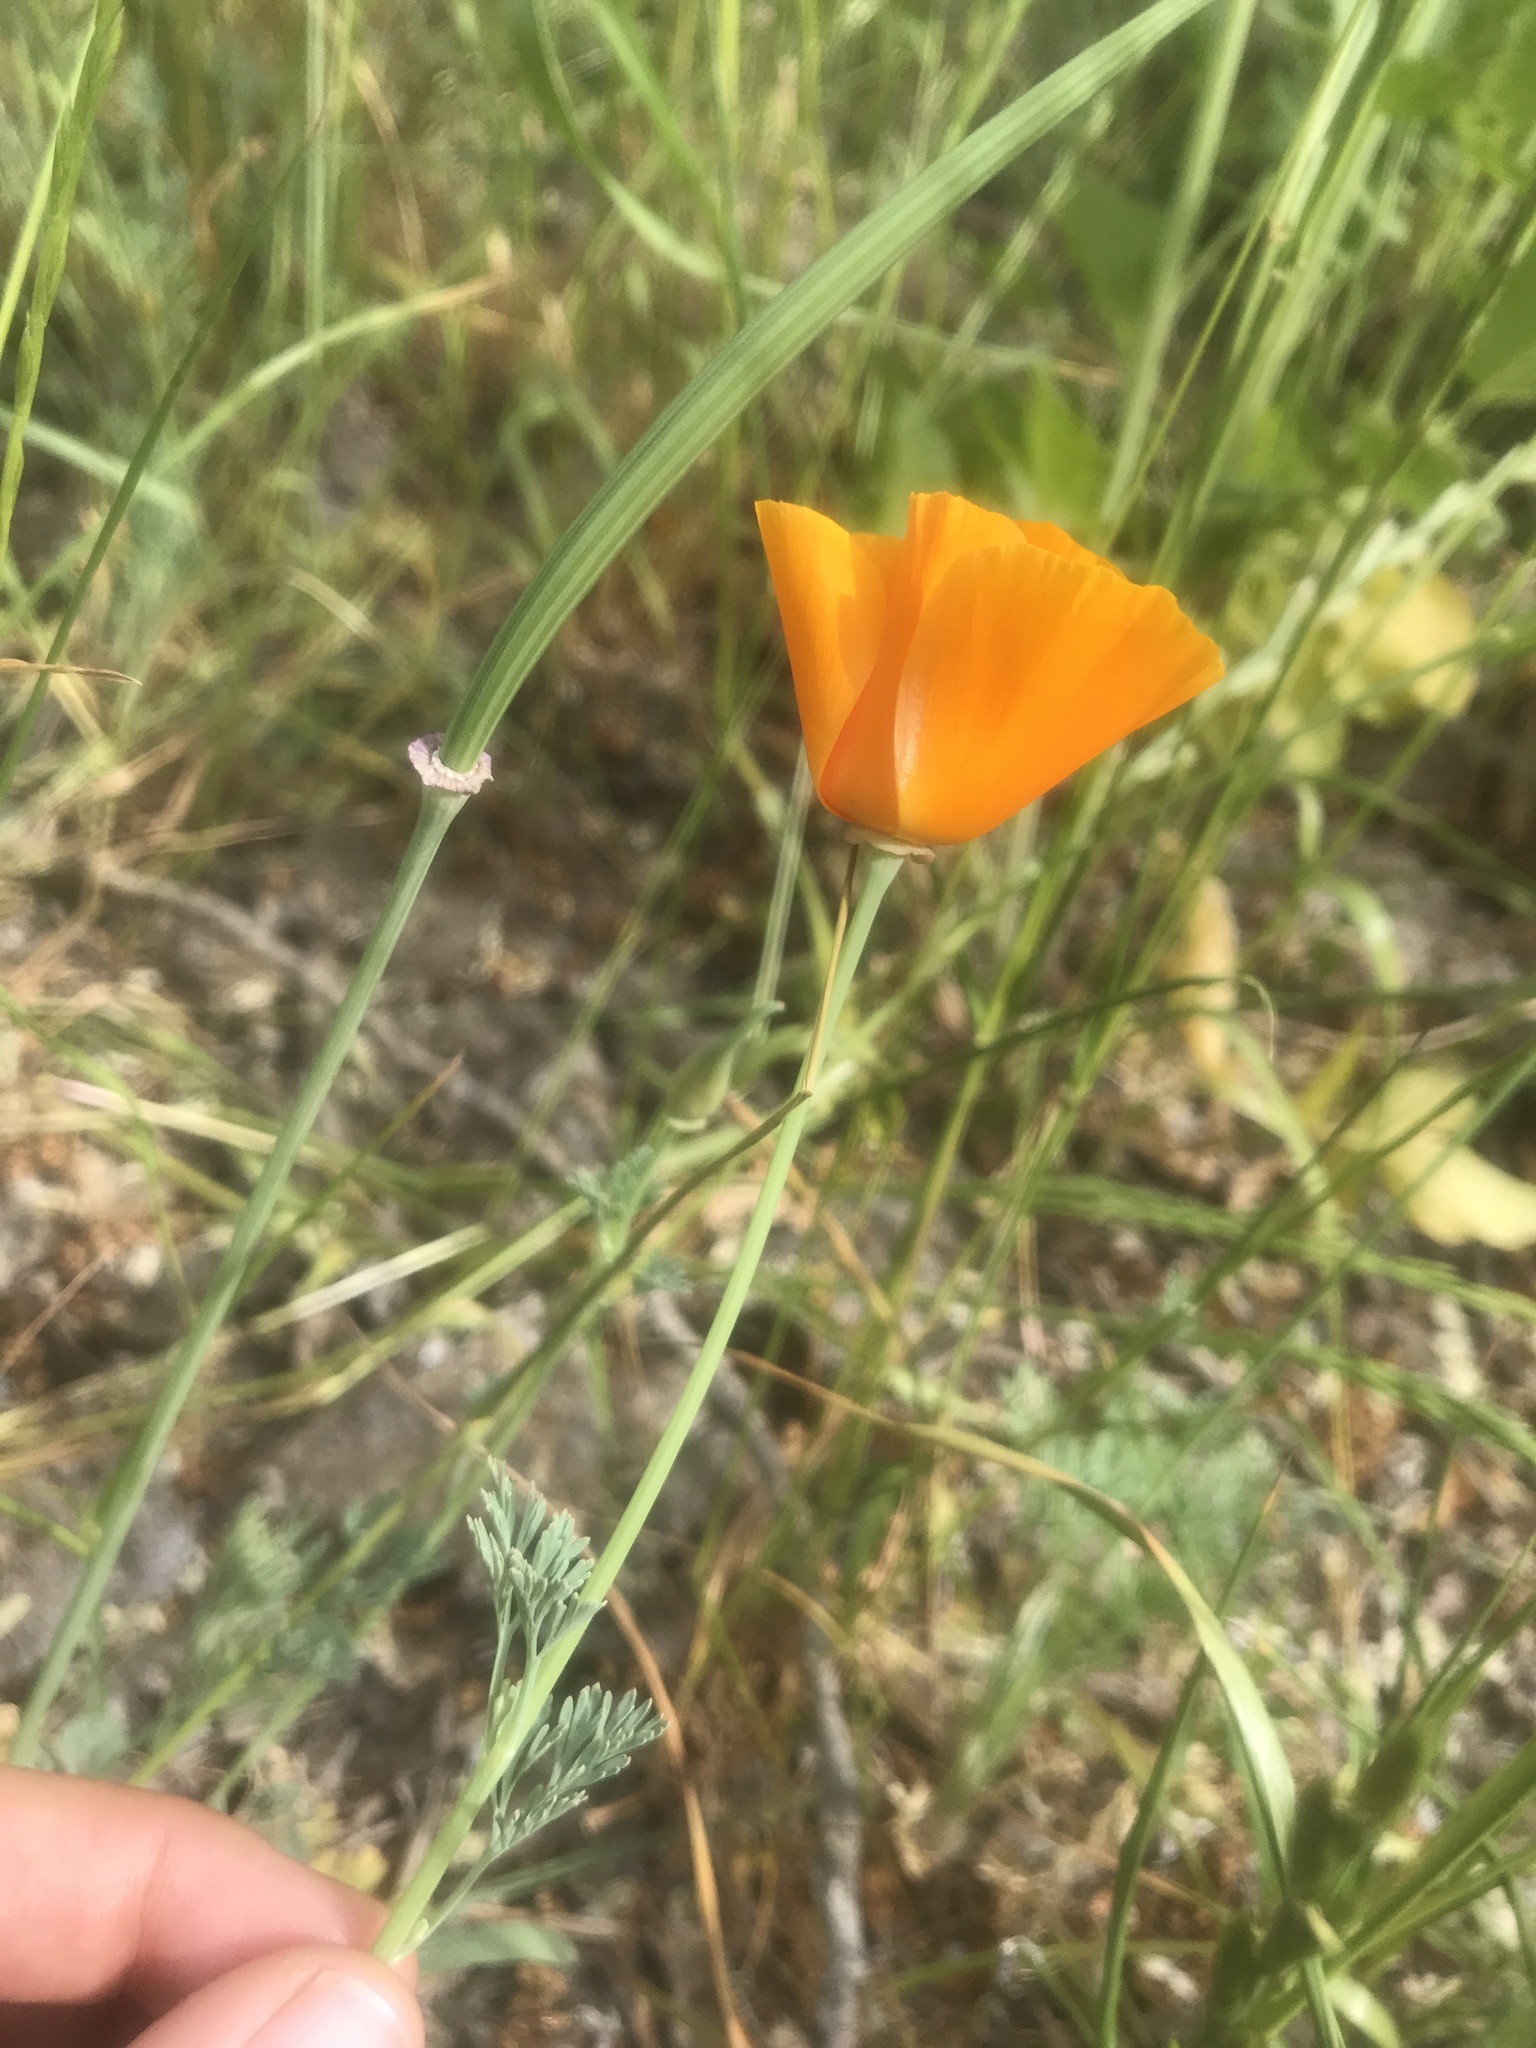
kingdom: Plantae
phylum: Tracheophyta
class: Magnoliopsida
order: Ranunculales
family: Papaveraceae
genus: Eschscholzia
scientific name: Eschscholzia californica
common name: California poppy
